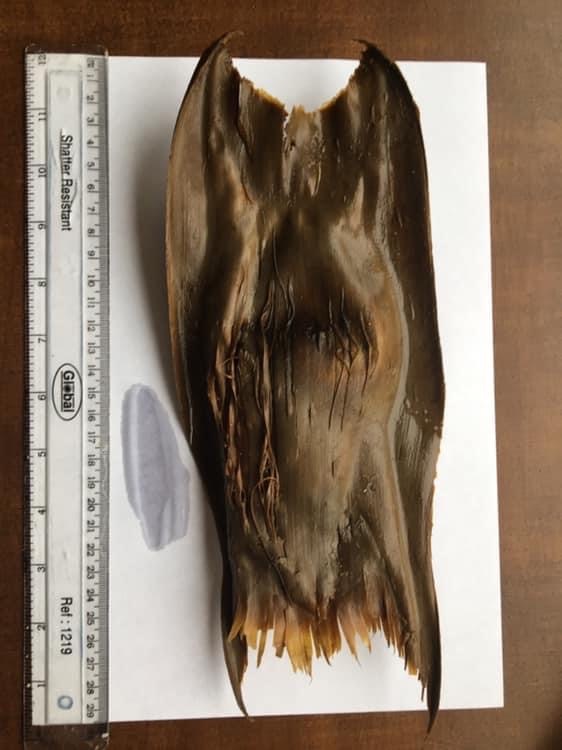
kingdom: Animalia
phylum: Chordata
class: Elasmobranchii
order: Rajiformes
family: Rajidae
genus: Dipturus
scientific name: Dipturus batis
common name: Blue skate
